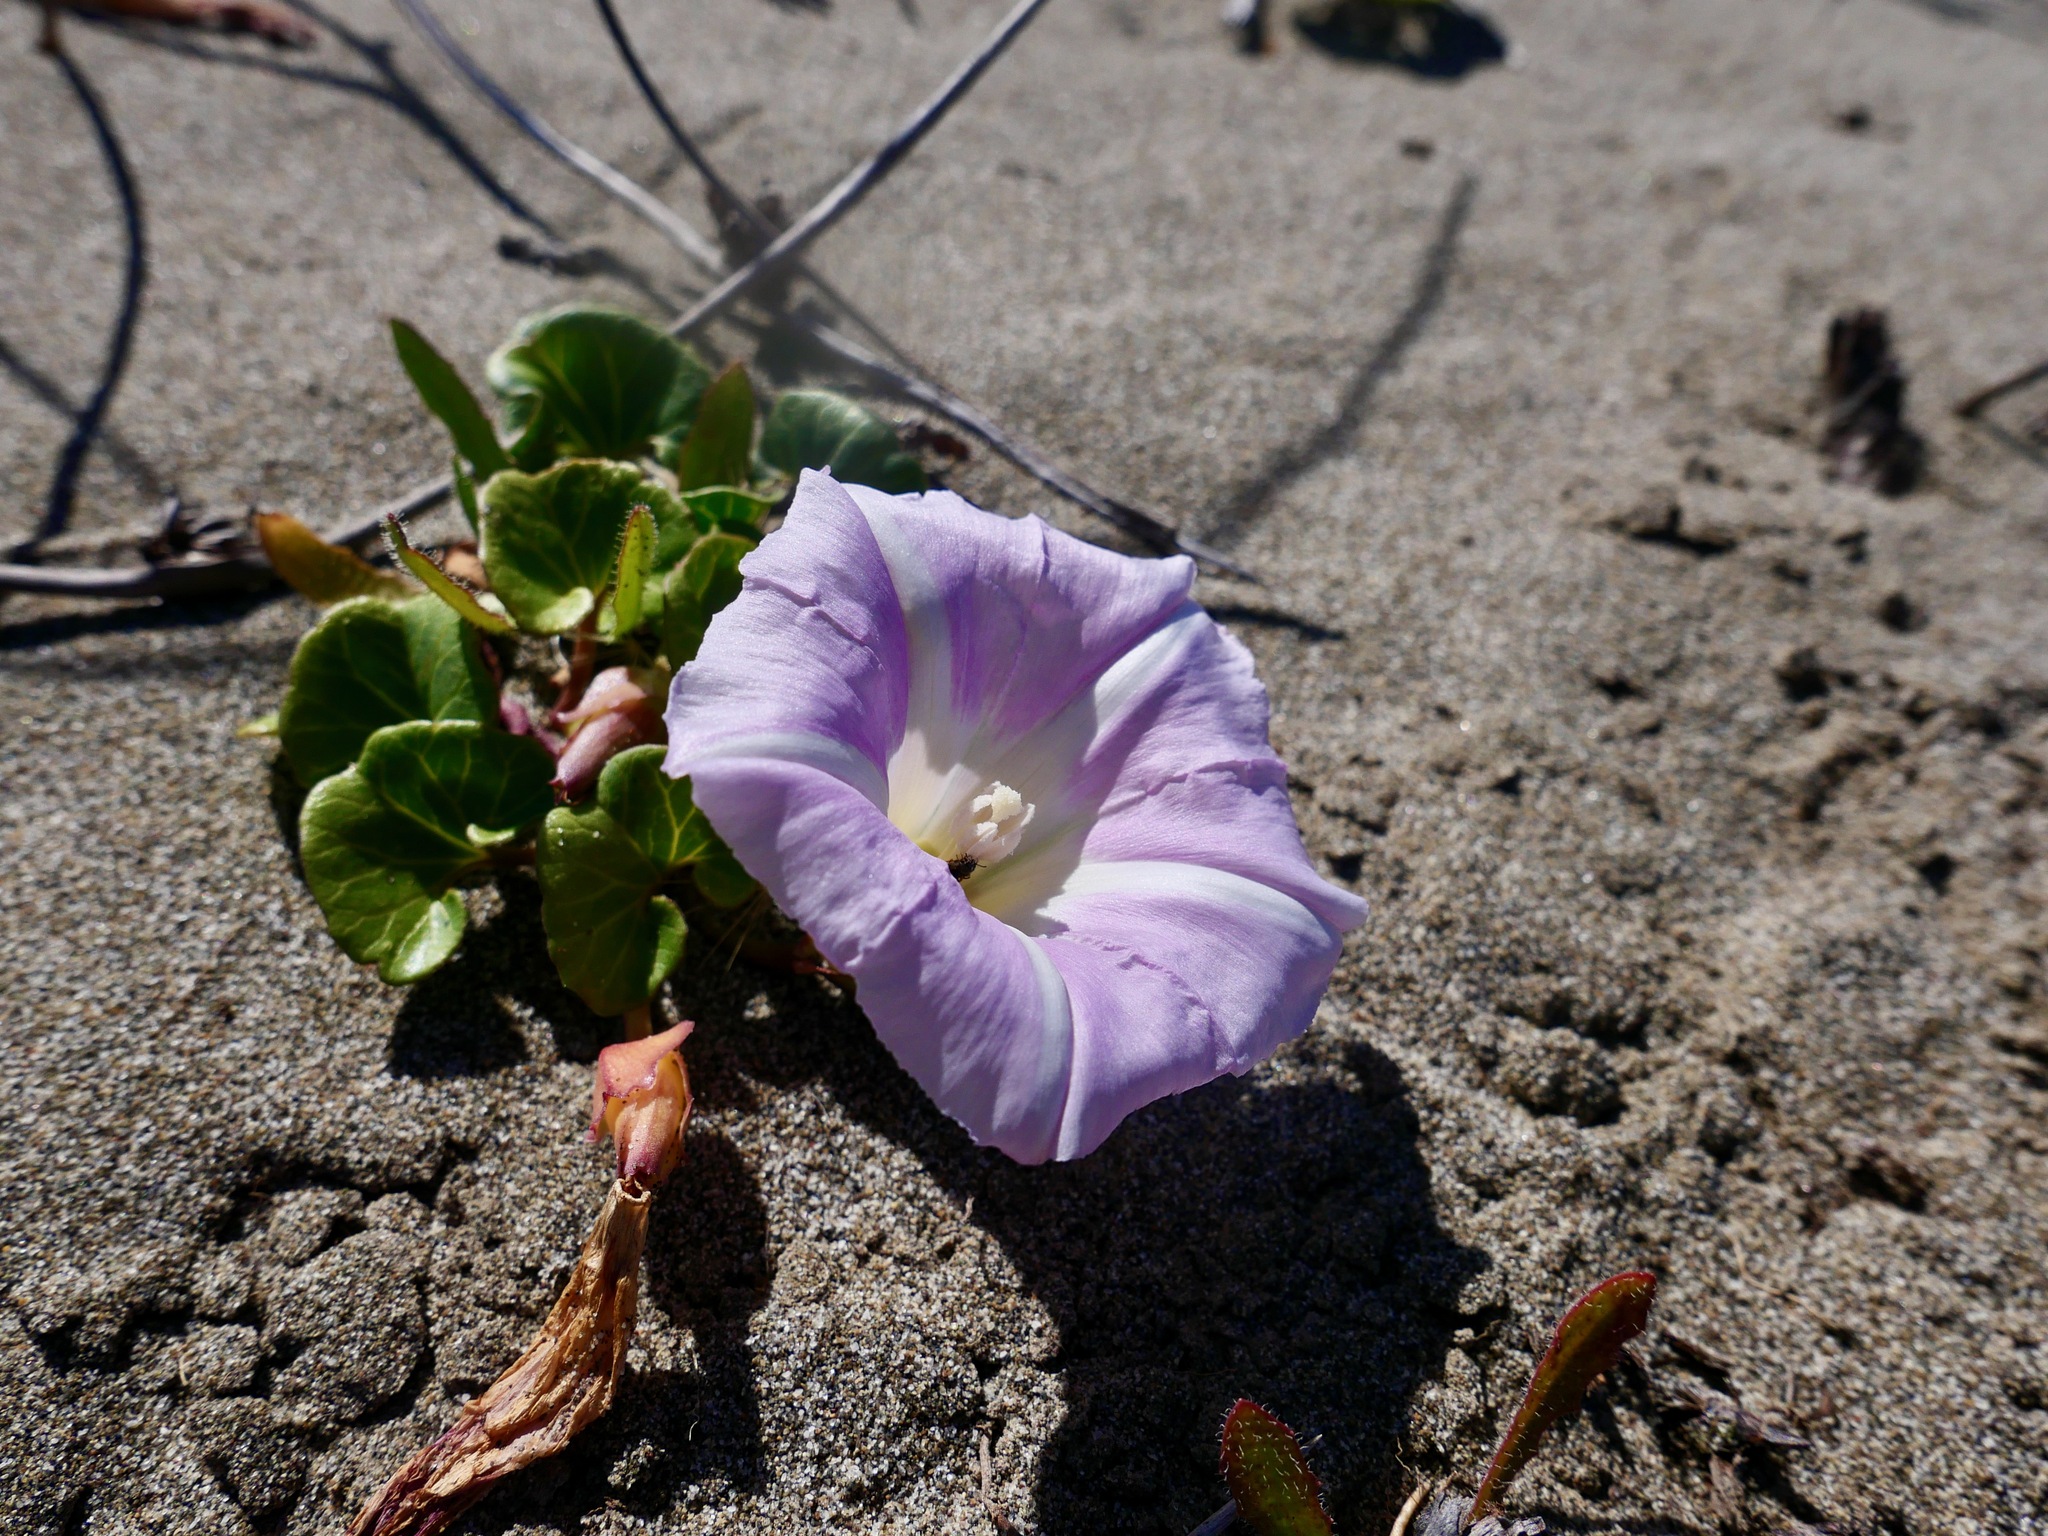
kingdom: Plantae
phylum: Tracheophyta
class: Magnoliopsida
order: Solanales
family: Convolvulaceae
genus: Calystegia
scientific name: Calystegia soldanella
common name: Sea bindweed
